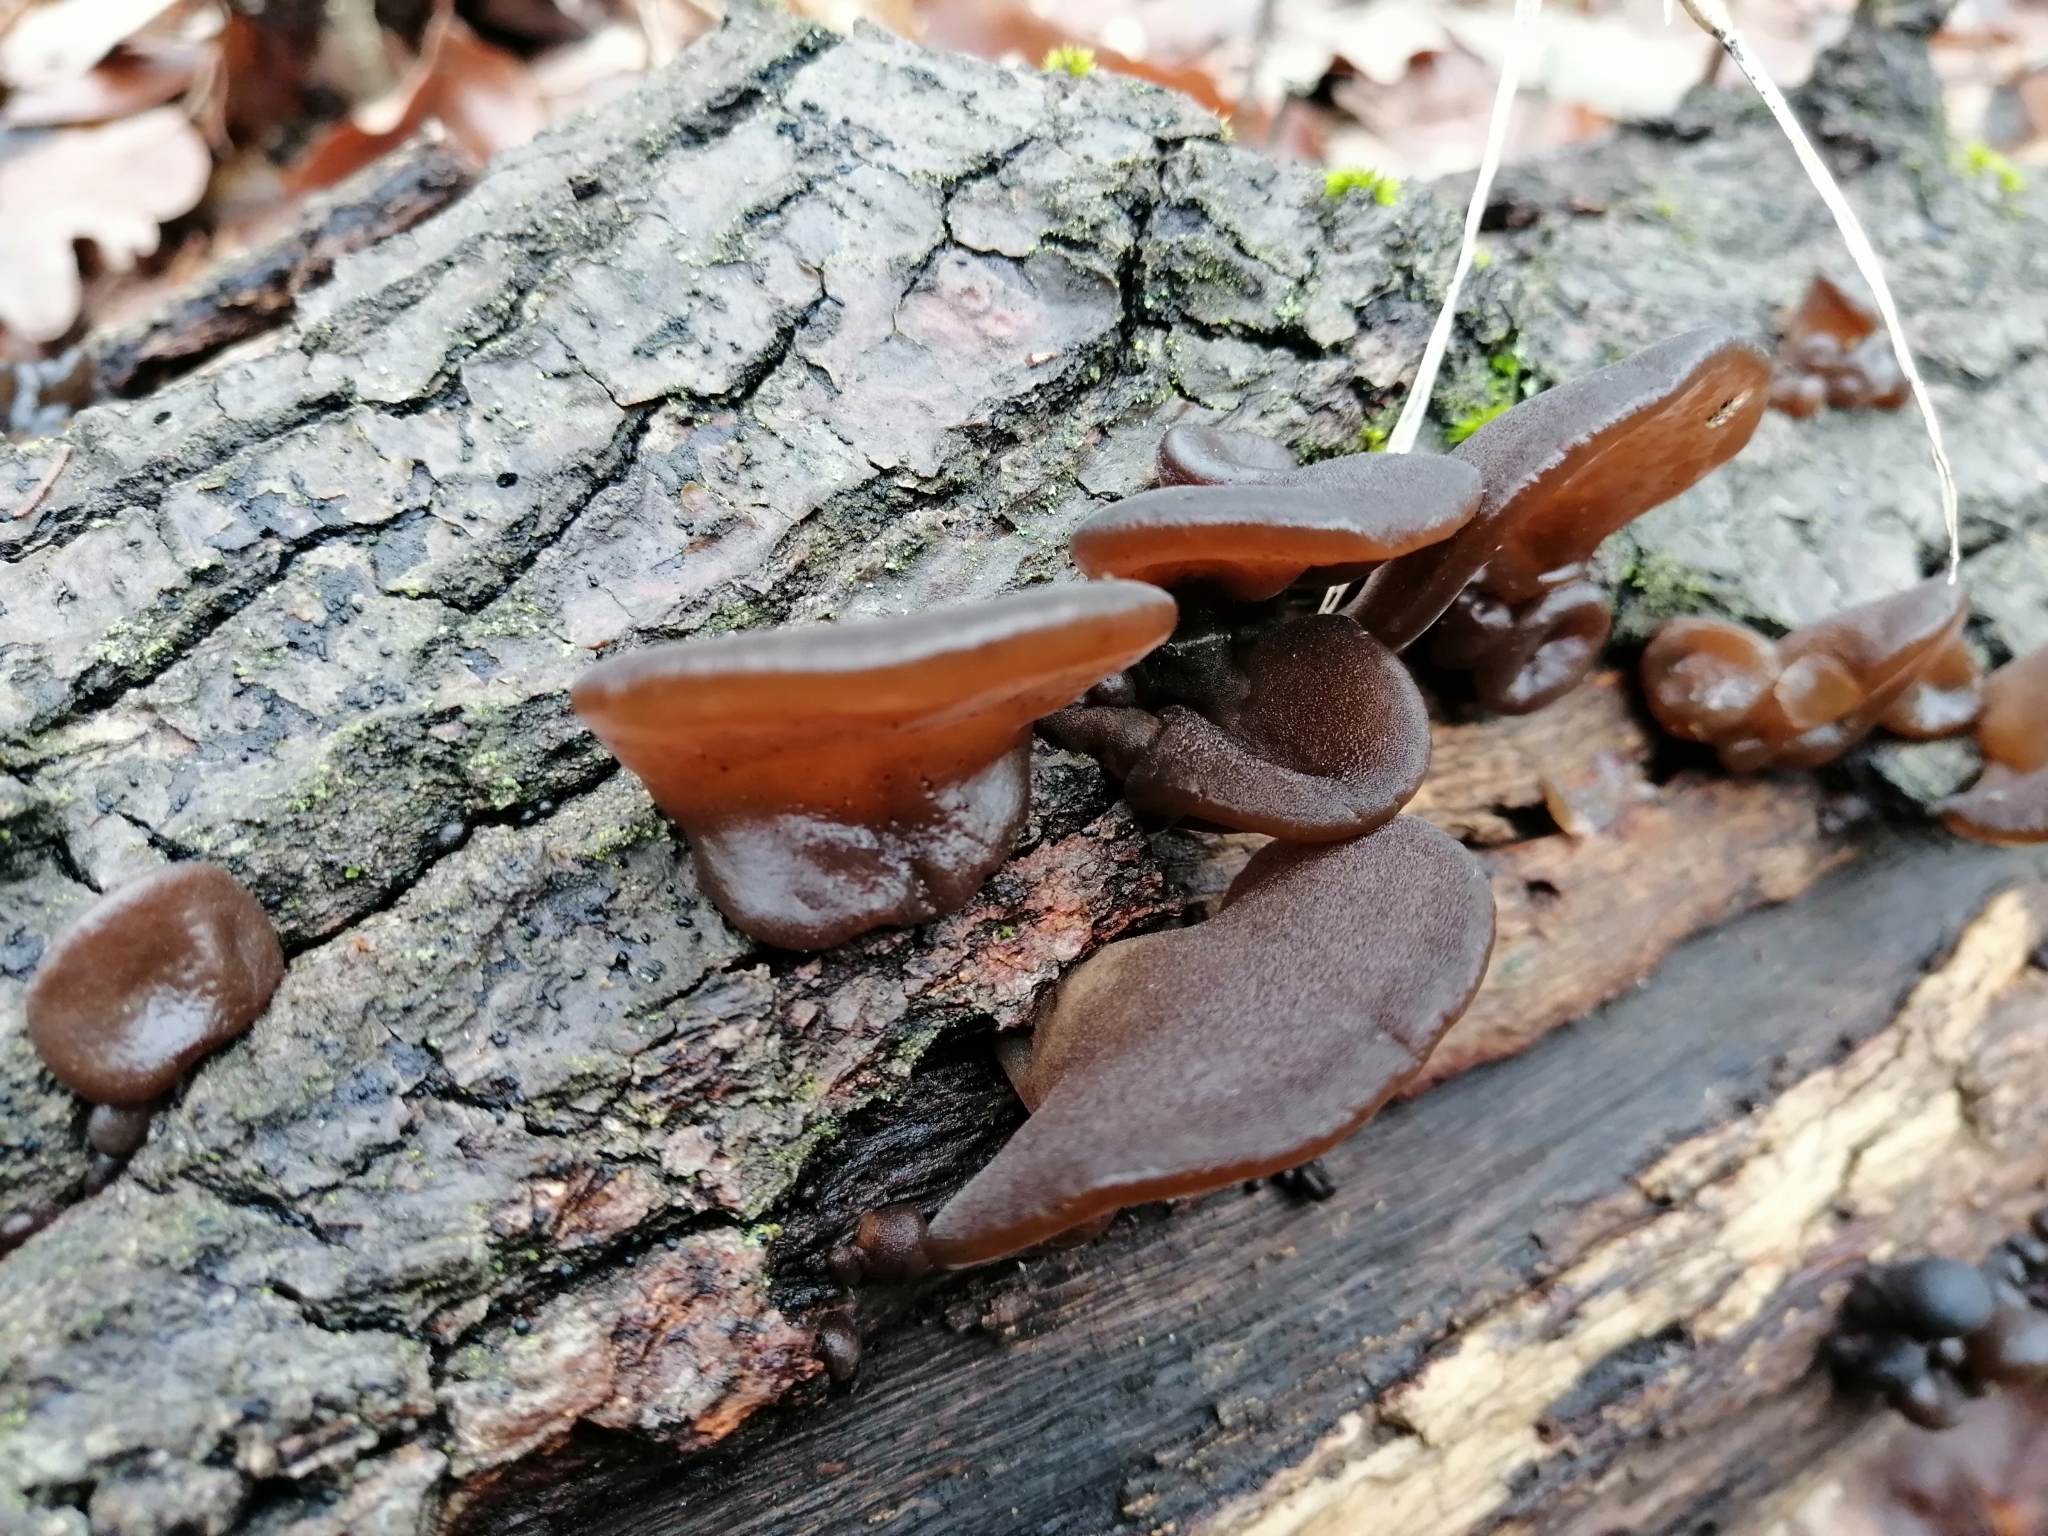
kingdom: Fungi
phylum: Basidiomycota
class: Agaricomycetes
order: Auriculariales
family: Auriculariaceae
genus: Auricularia
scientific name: Auricularia auricula-judae
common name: Jelly ear
